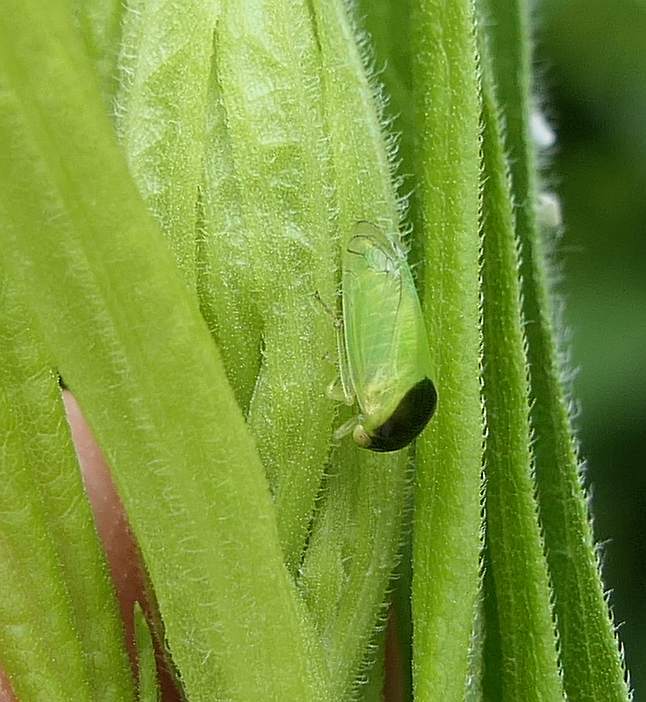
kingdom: Animalia
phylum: Arthropoda
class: Insecta
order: Hemiptera
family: Membracidae
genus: Acutalis
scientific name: Acutalis tartarea
